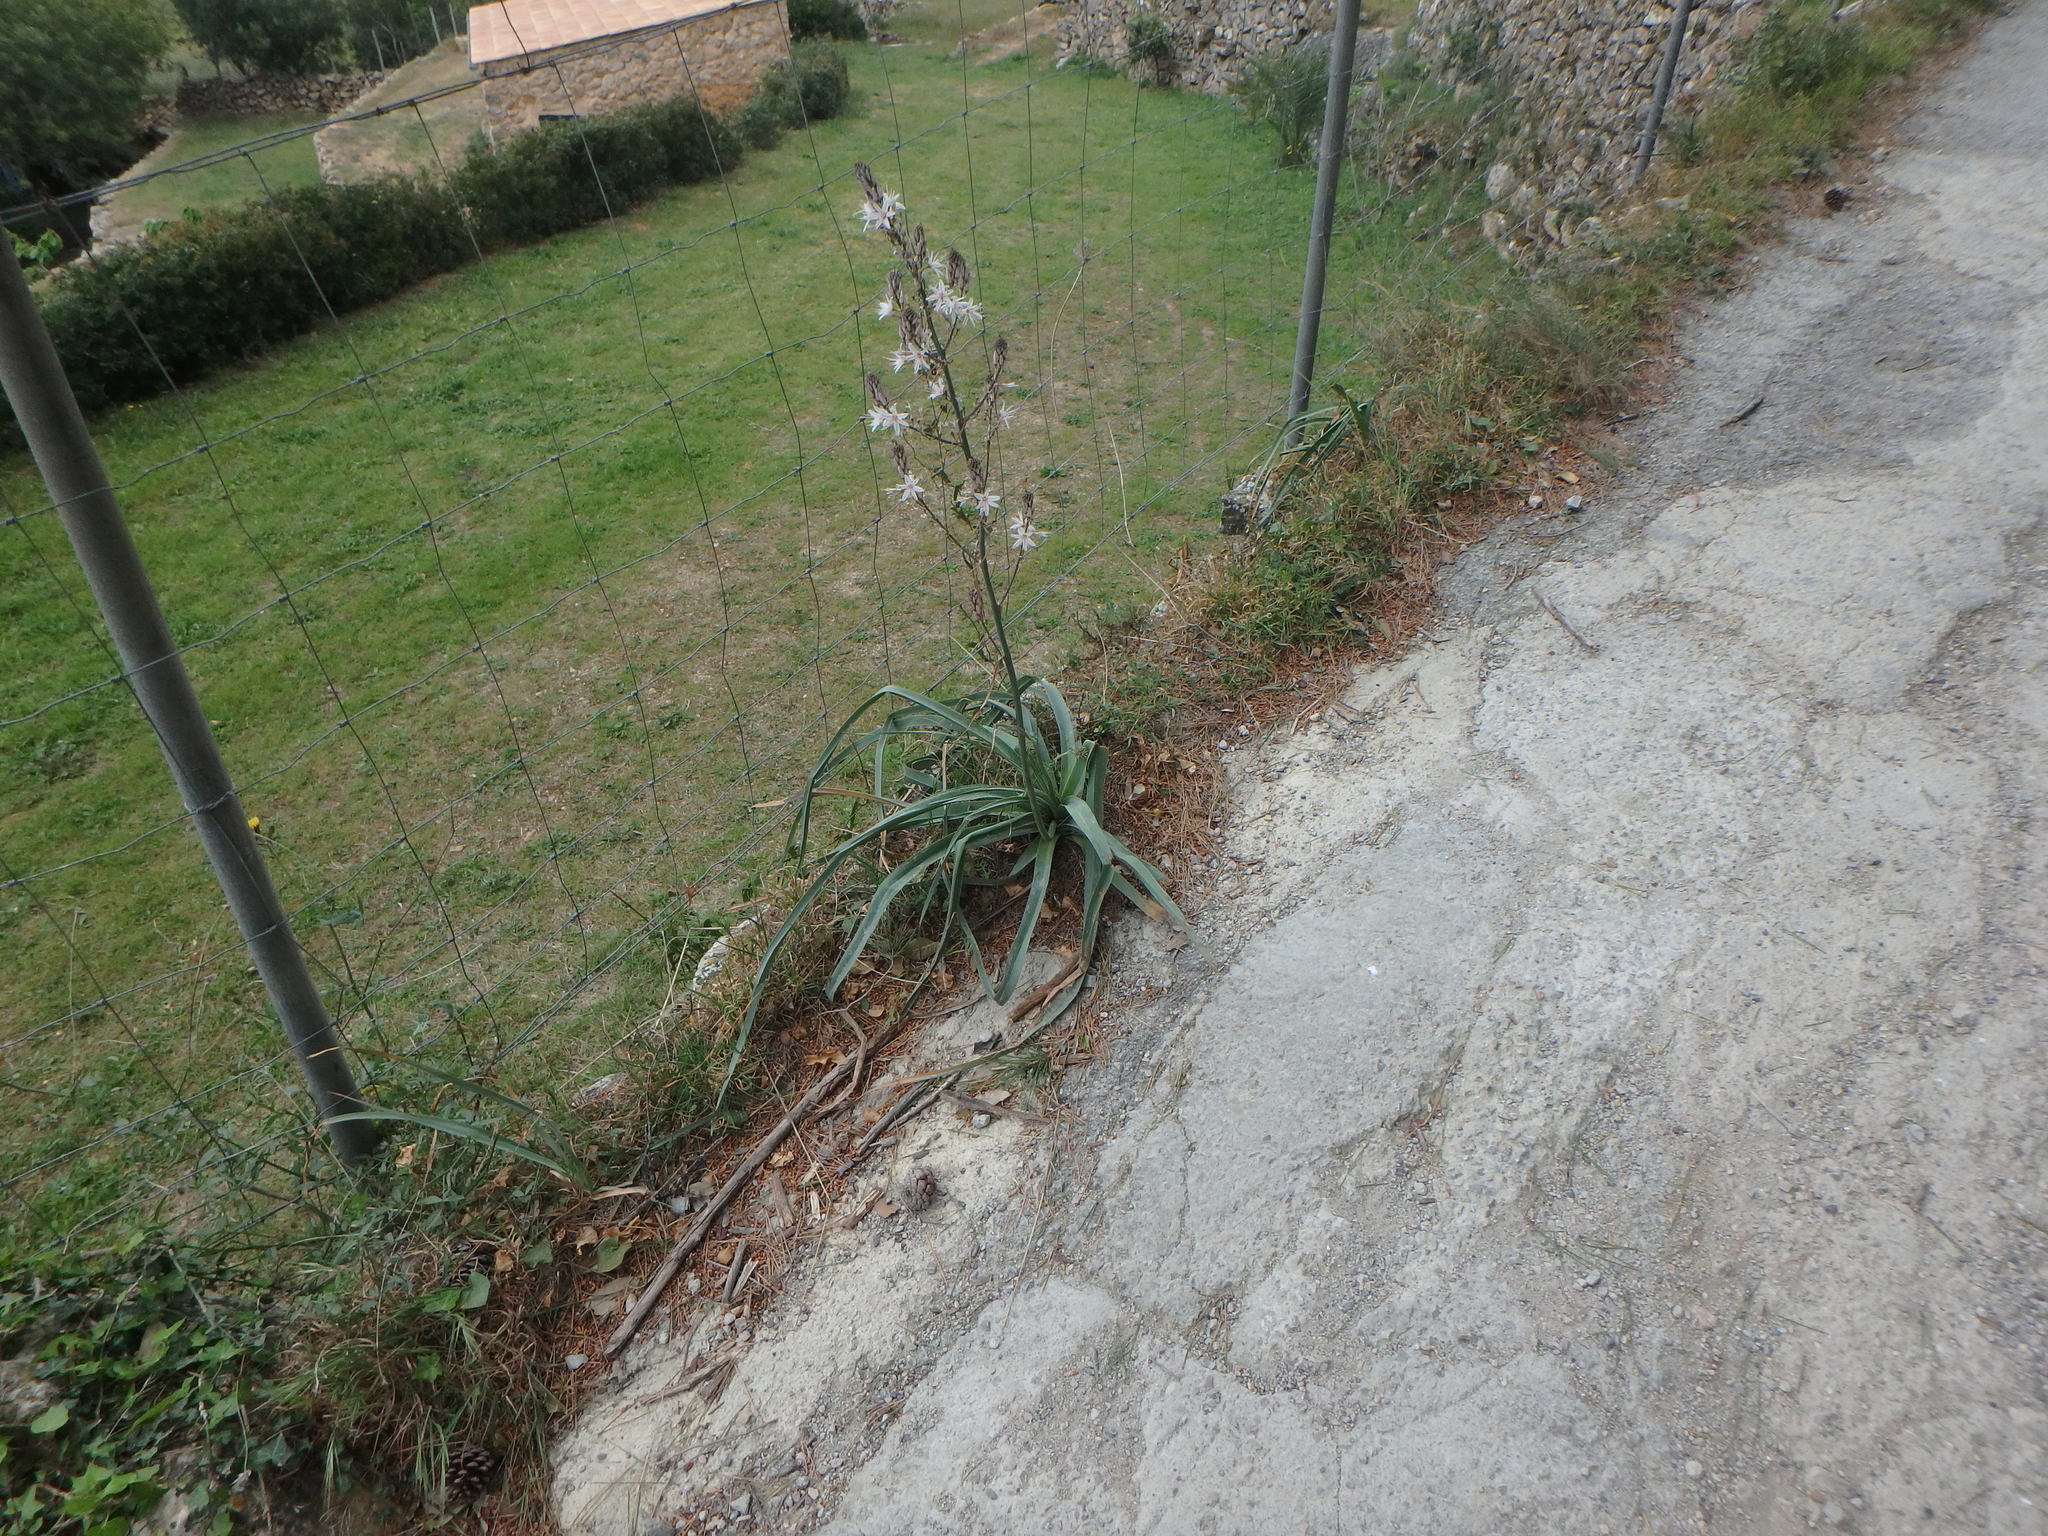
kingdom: Plantae
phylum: Tracheophyta
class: Liliopsida
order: Asparagales
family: Asphodelaceae
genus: Asphodelus
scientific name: Asphodelus ramosus
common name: Silverrod
